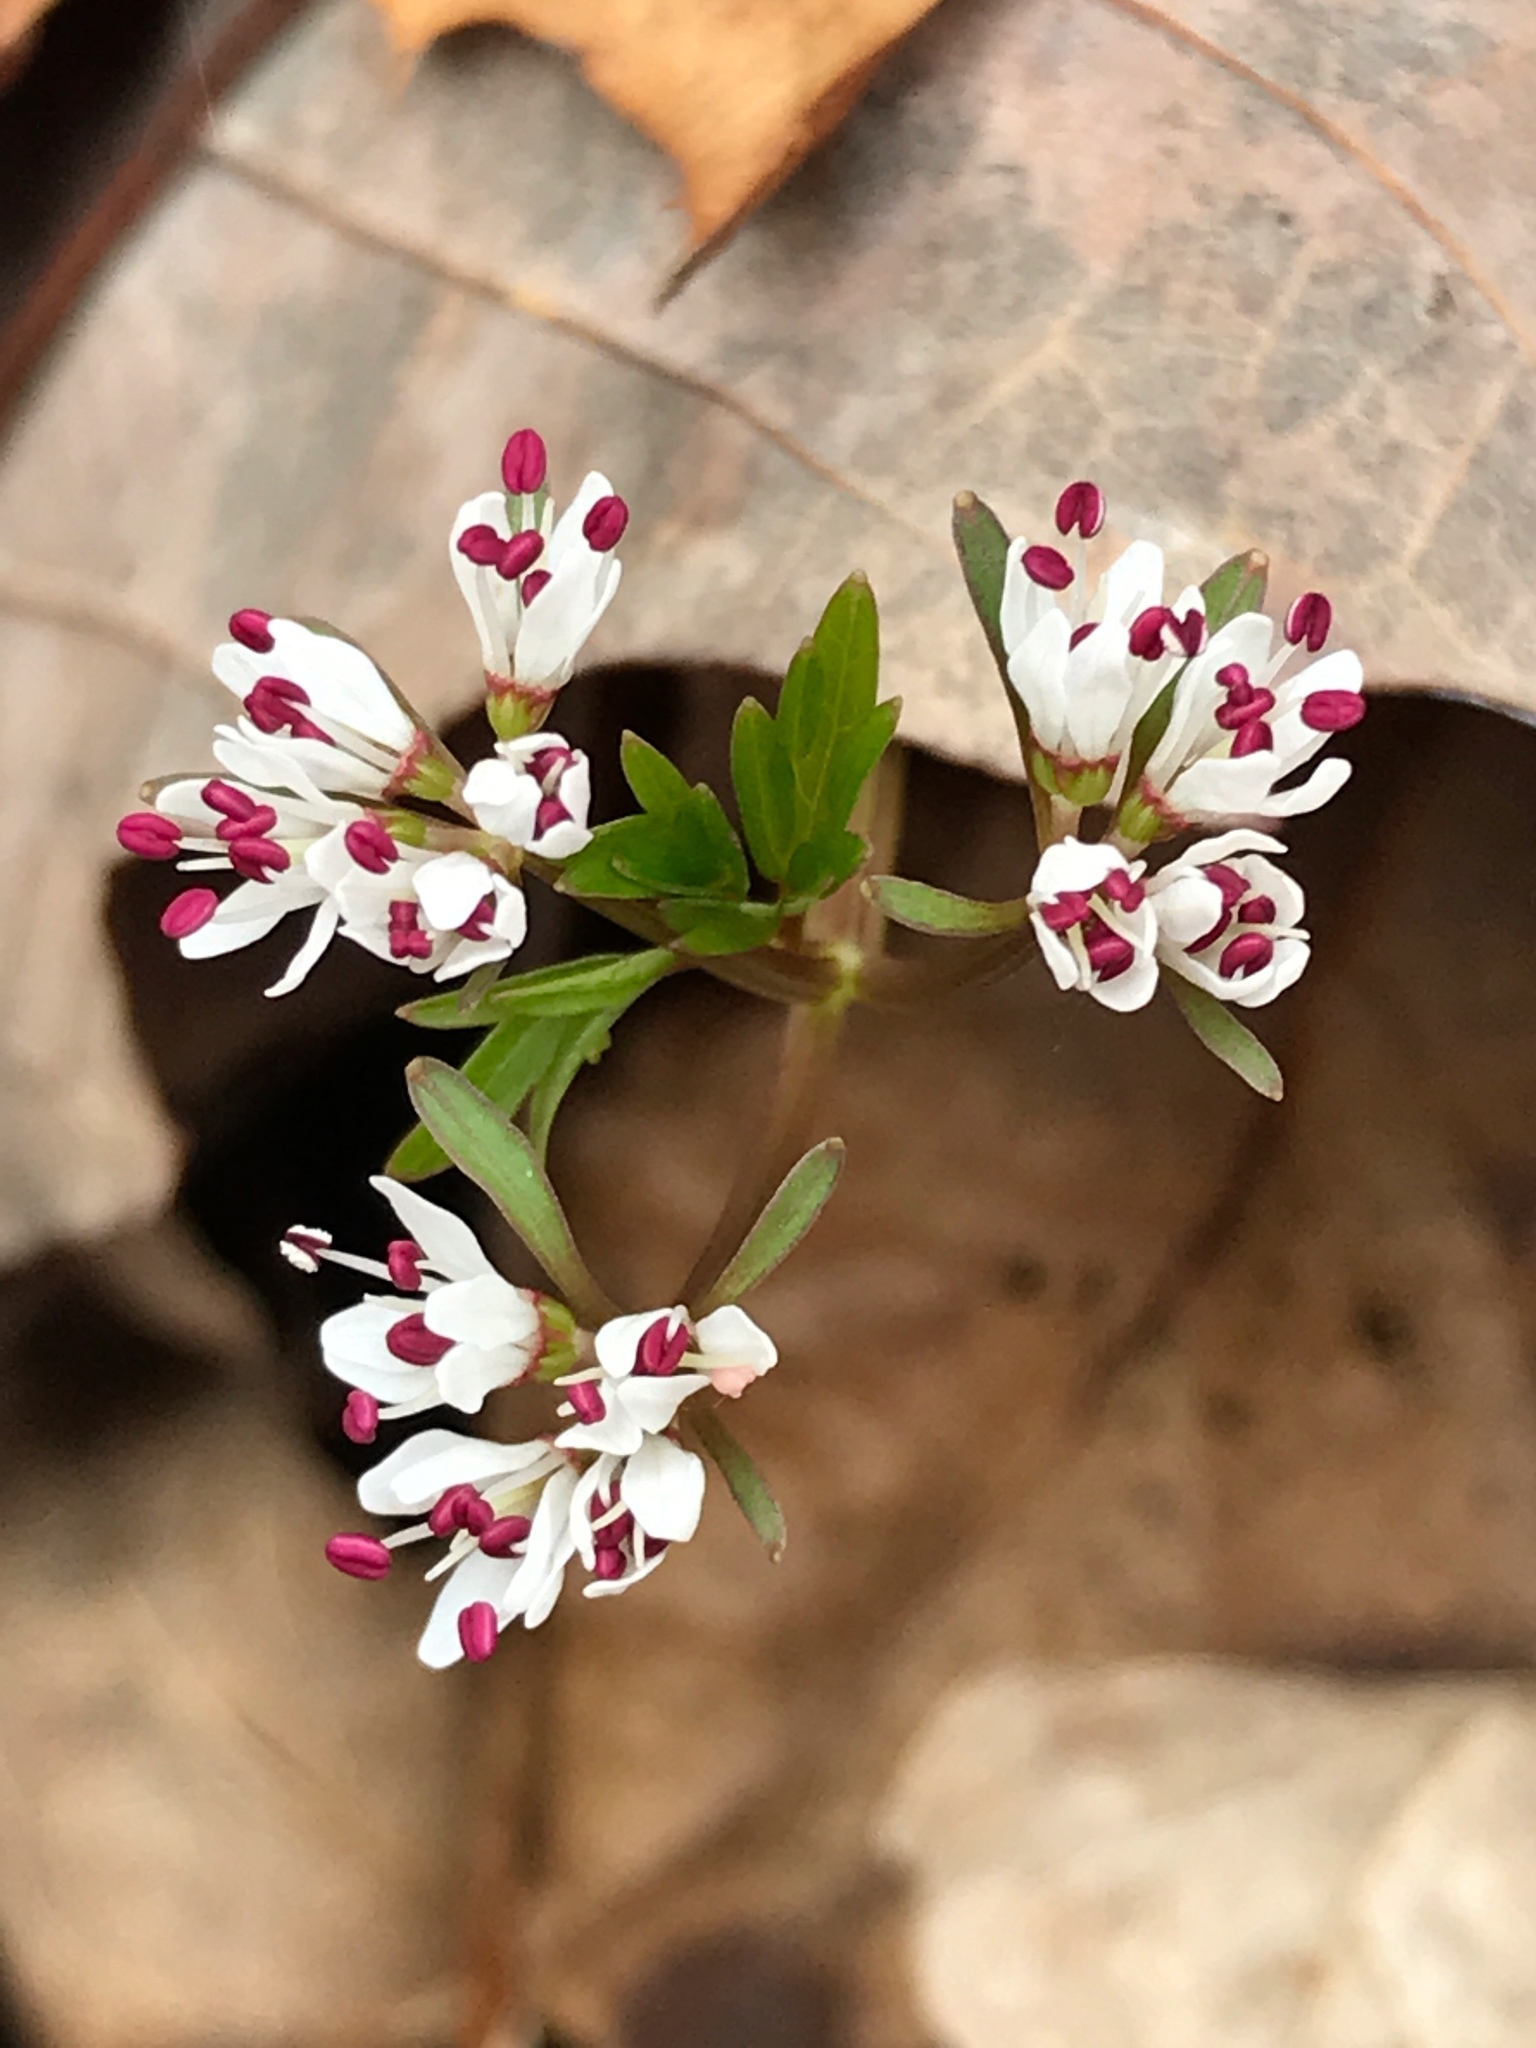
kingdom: Plantae
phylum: Tracheophyta
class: Magnoliopsida
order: Apiales
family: Apiaceae
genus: Erigenia
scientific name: Erigenia bulbosa
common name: Pepper-and-salt
